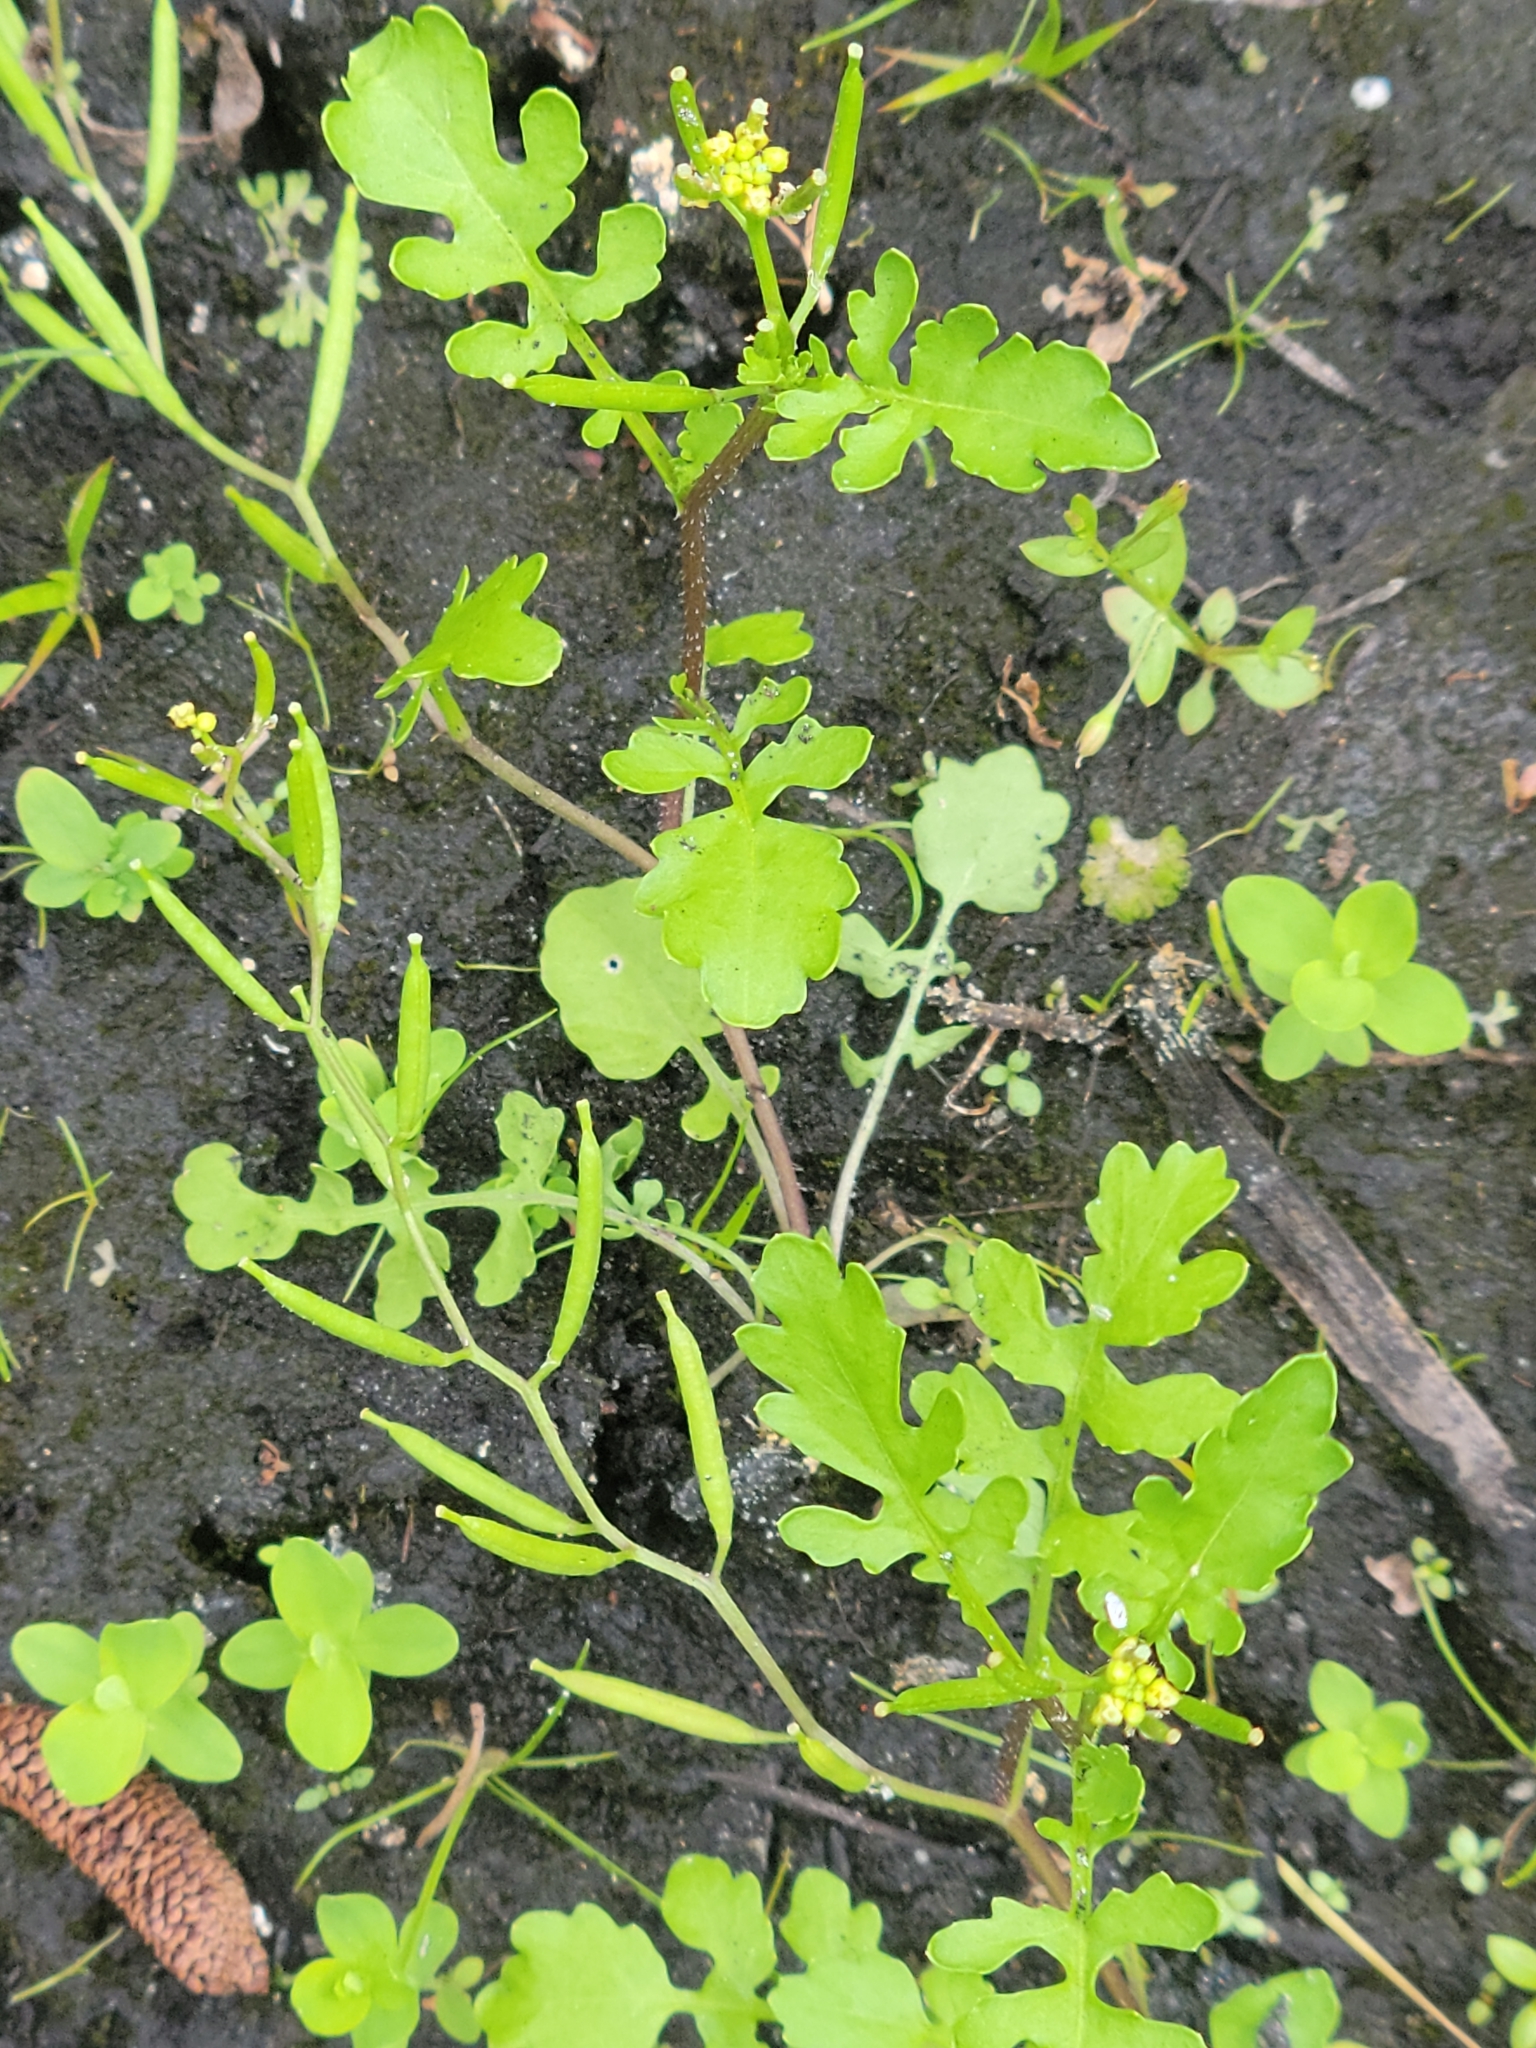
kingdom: Plantae
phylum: Tracheophyta
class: Magnoliopsida
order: Brassicales
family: Brassicaceae
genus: Rorippa
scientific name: Rorippa teres
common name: Southern marsh yellowcress
